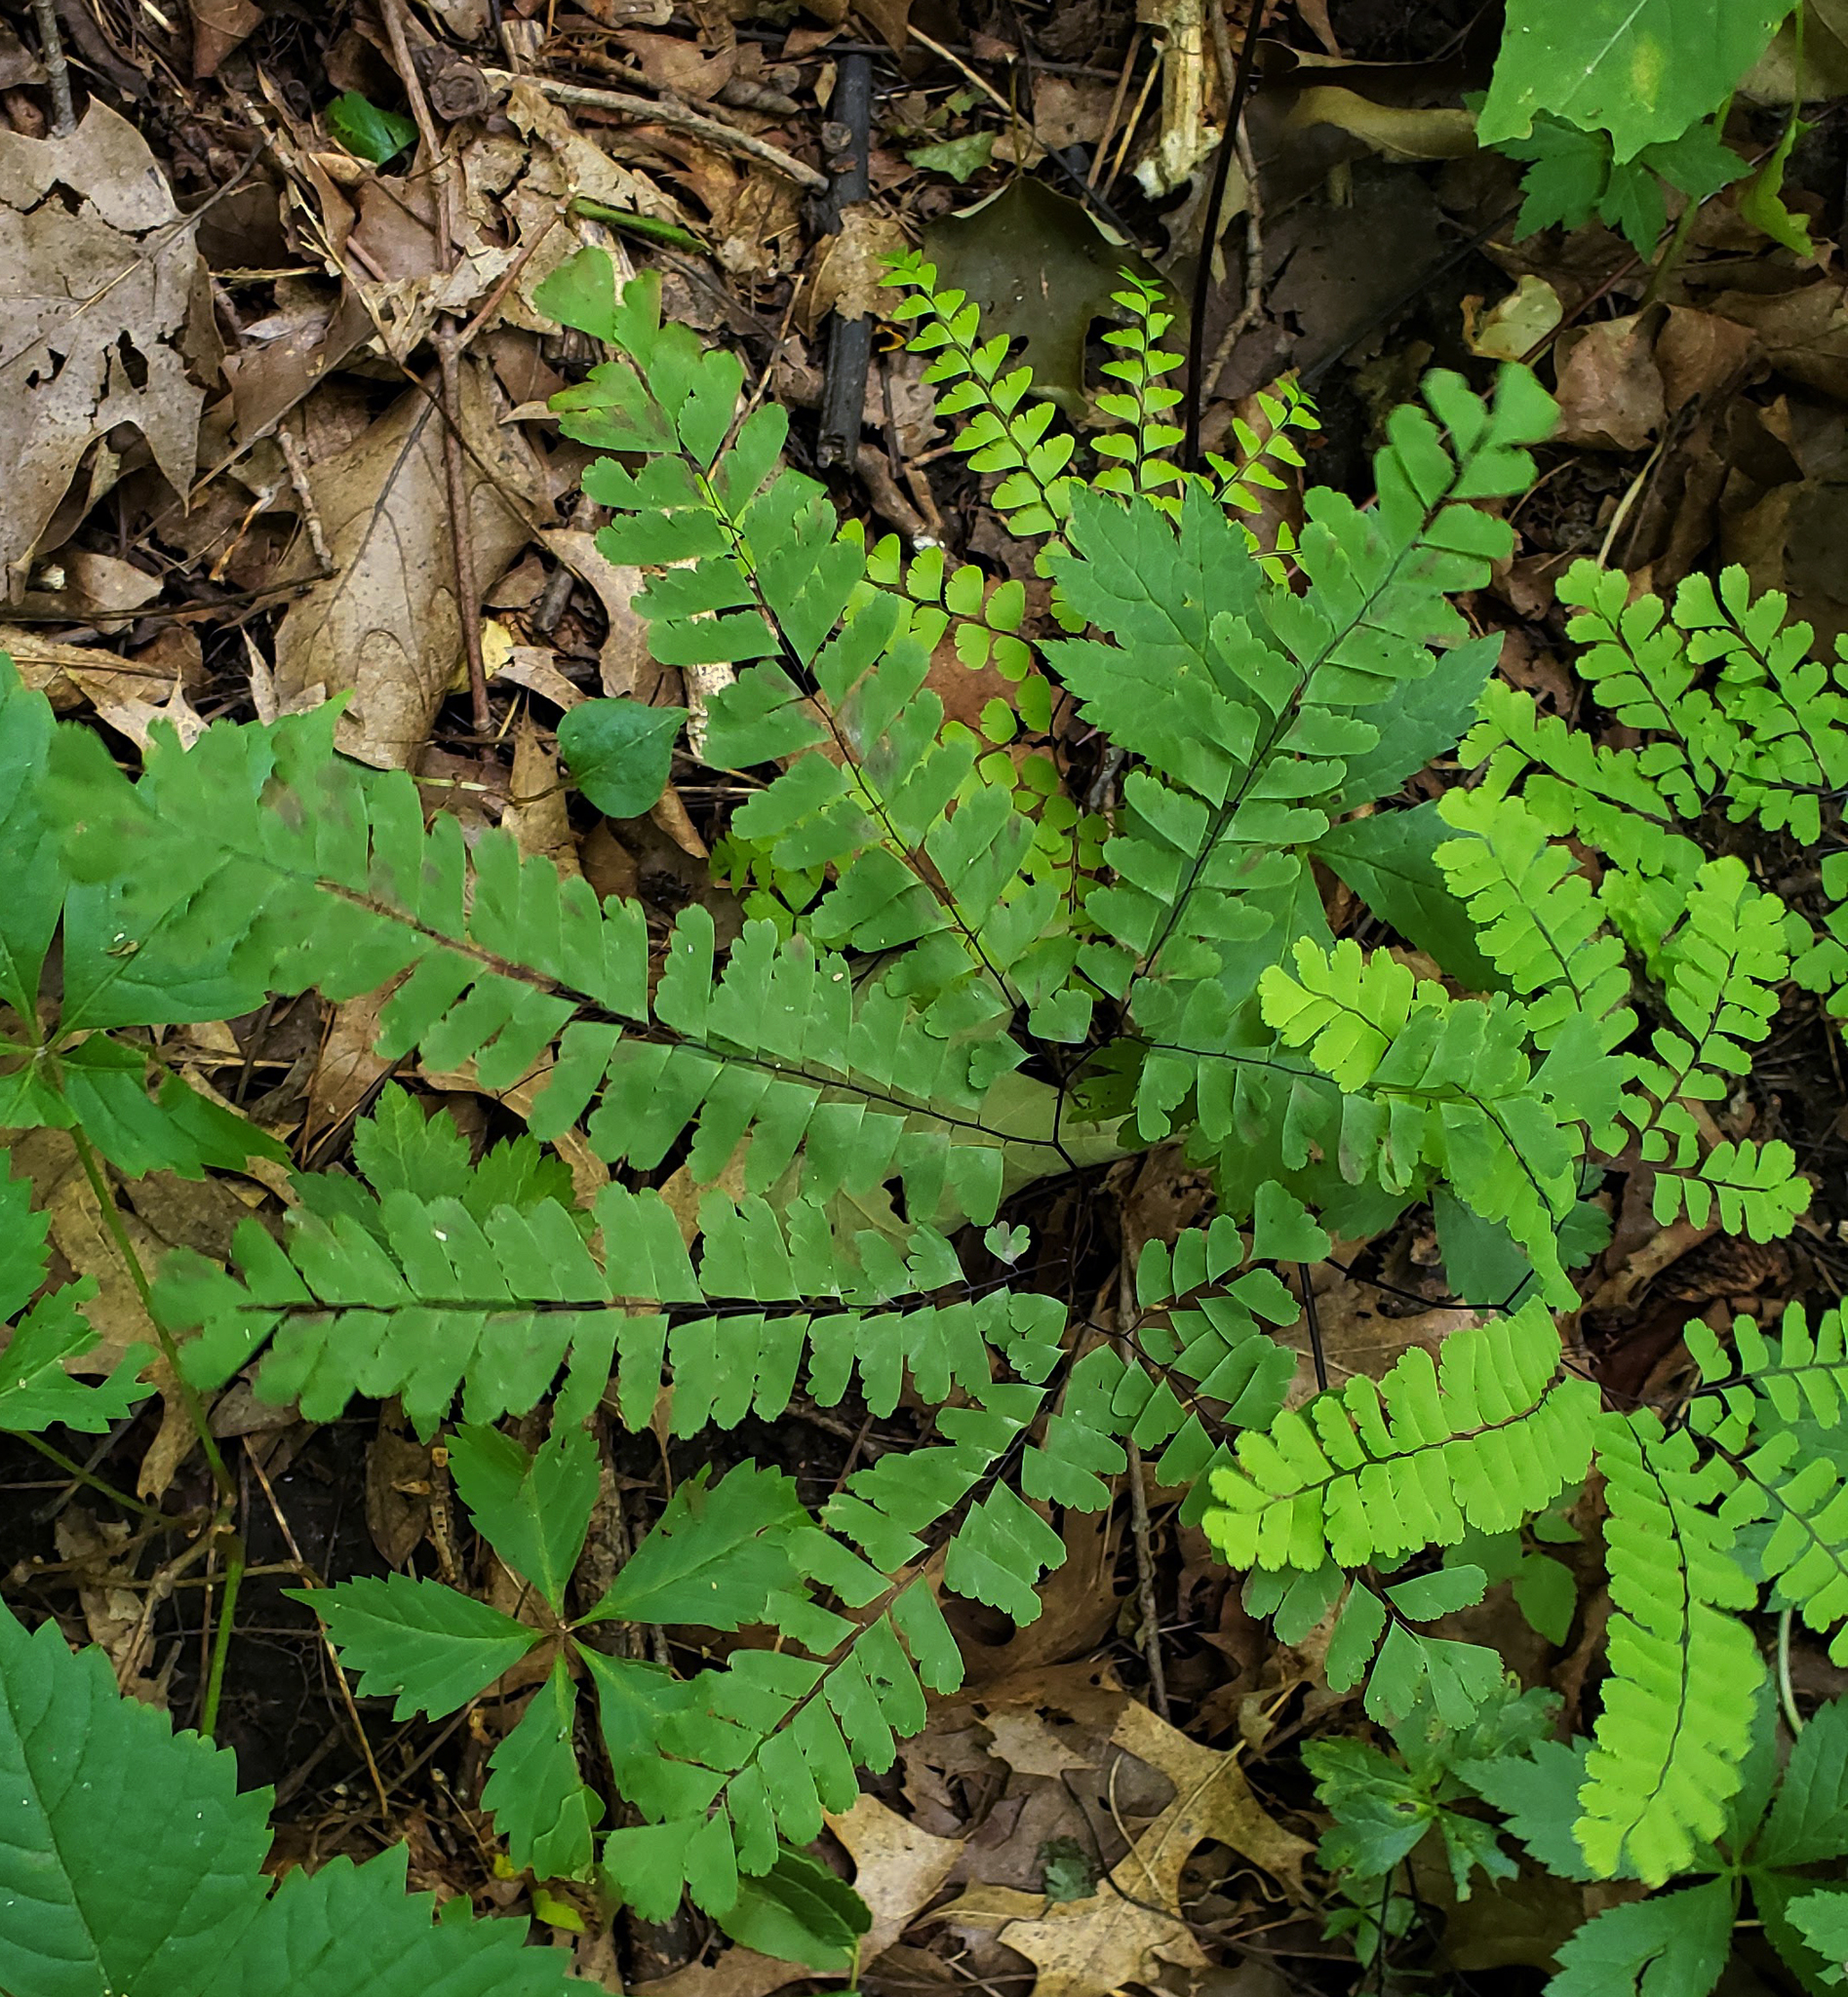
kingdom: Plantae
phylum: Tracheophyta
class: Polypodiopsida
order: Polypodiales
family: Pteridaceae
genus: Adiantum
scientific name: Adiantum pedatum
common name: Five-finger fern
